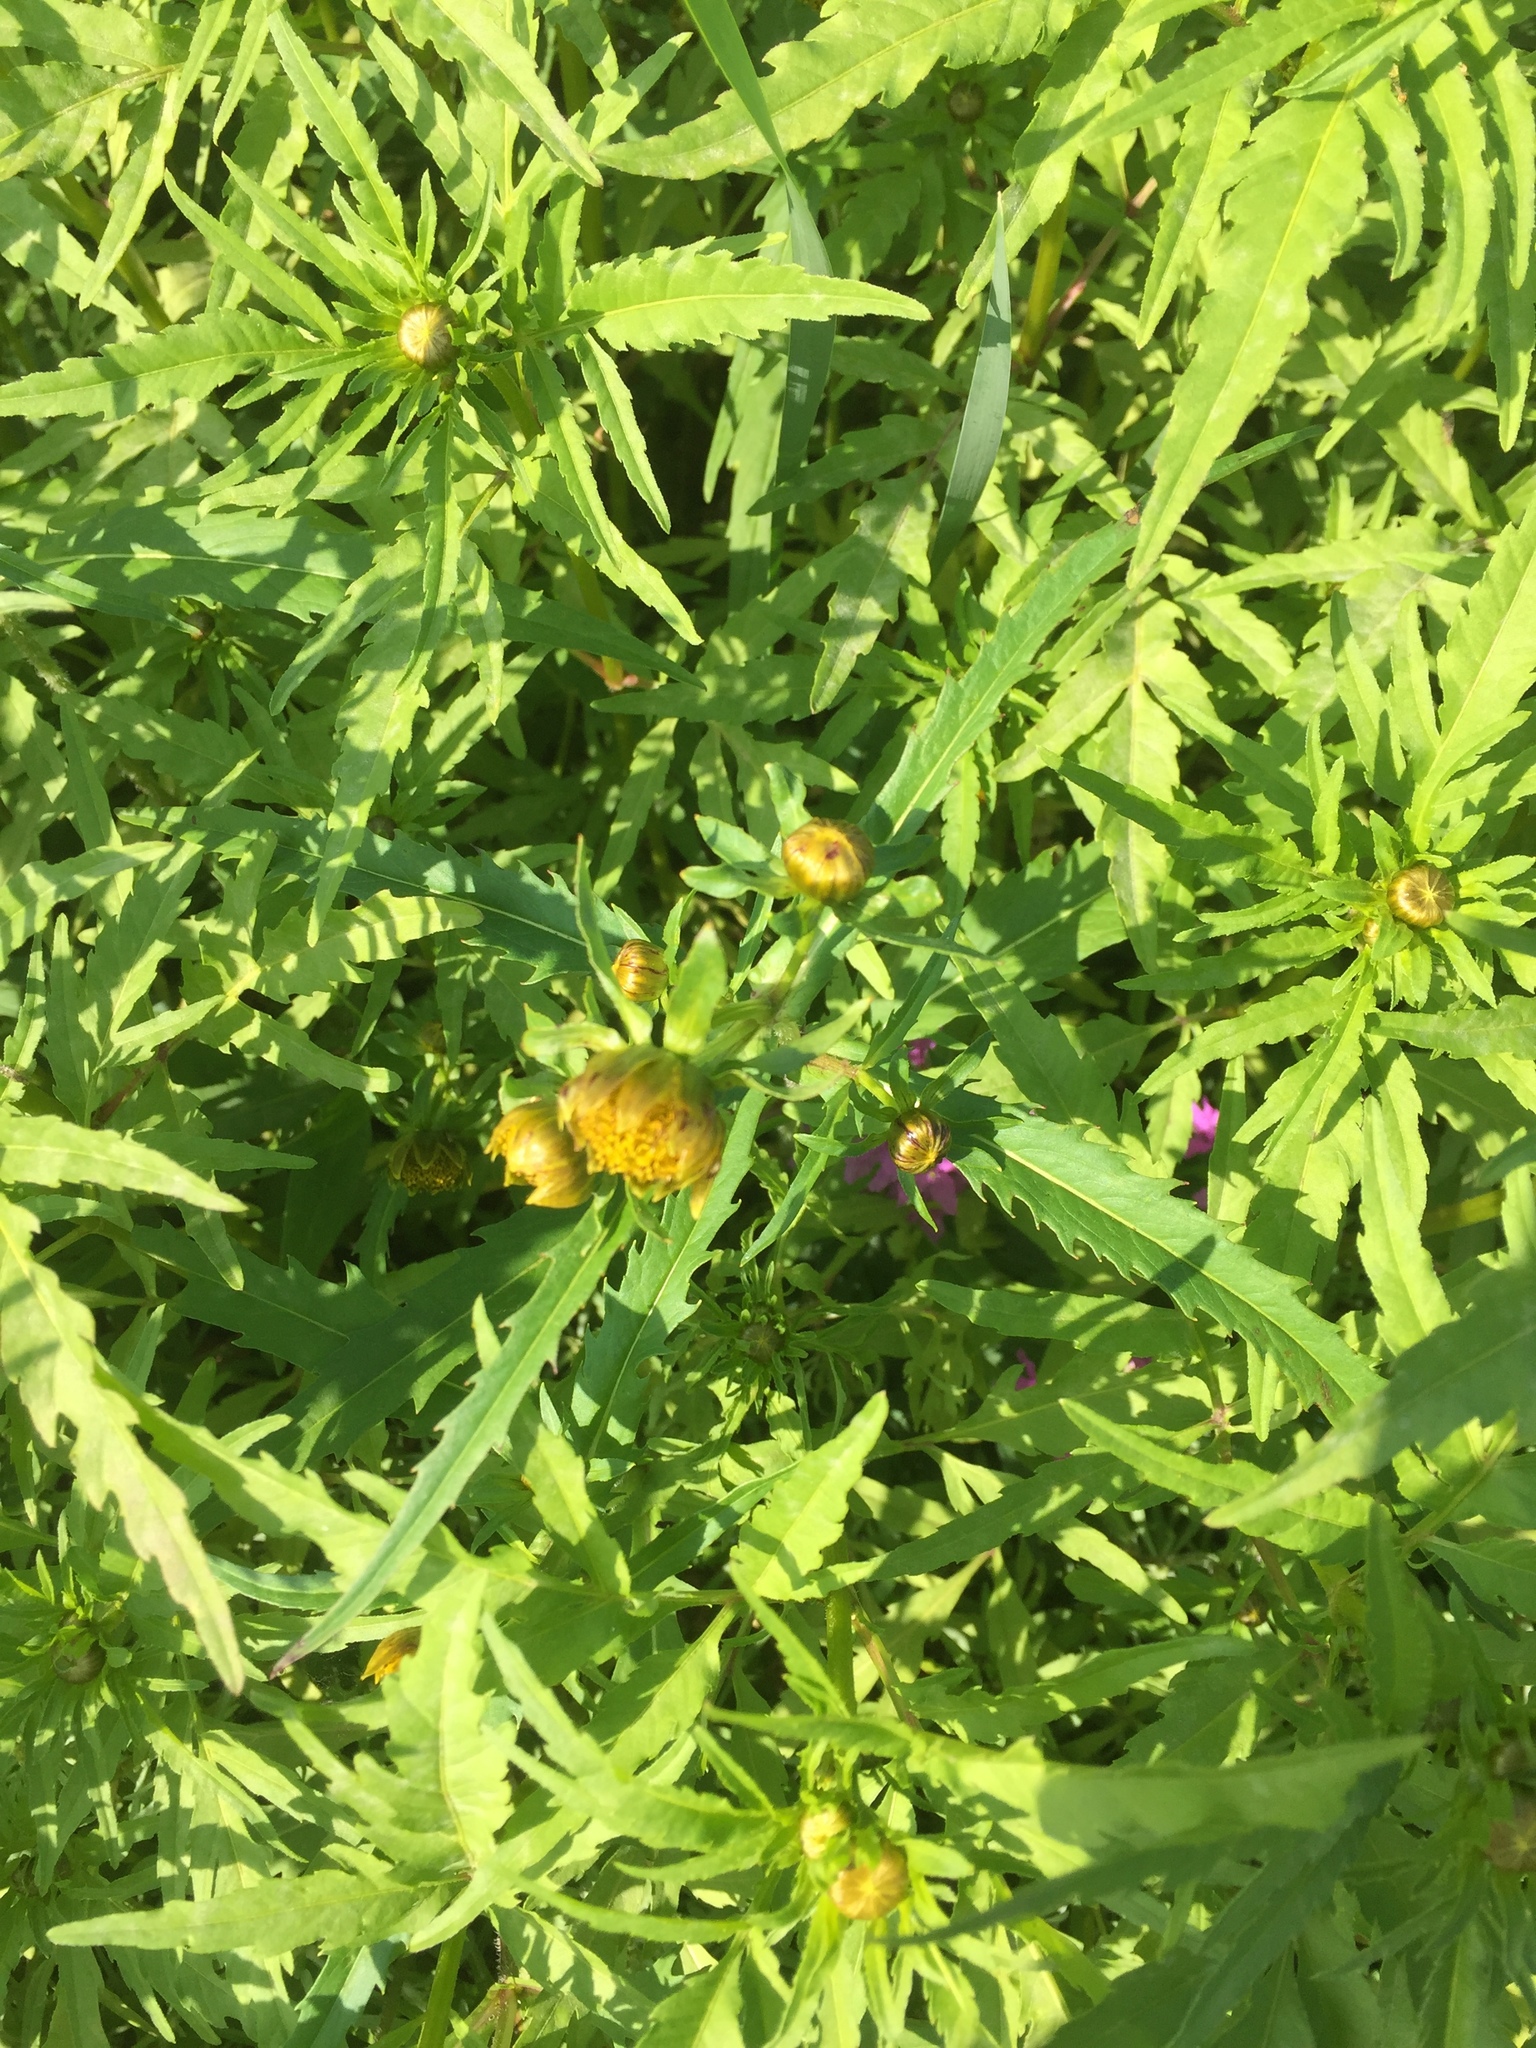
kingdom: Plantae
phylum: Tracheophyta
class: Magnoliopsida
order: Asterales
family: Asteraceae
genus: Bidens
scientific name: Bidens cernua
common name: Nodding bur-marigold
